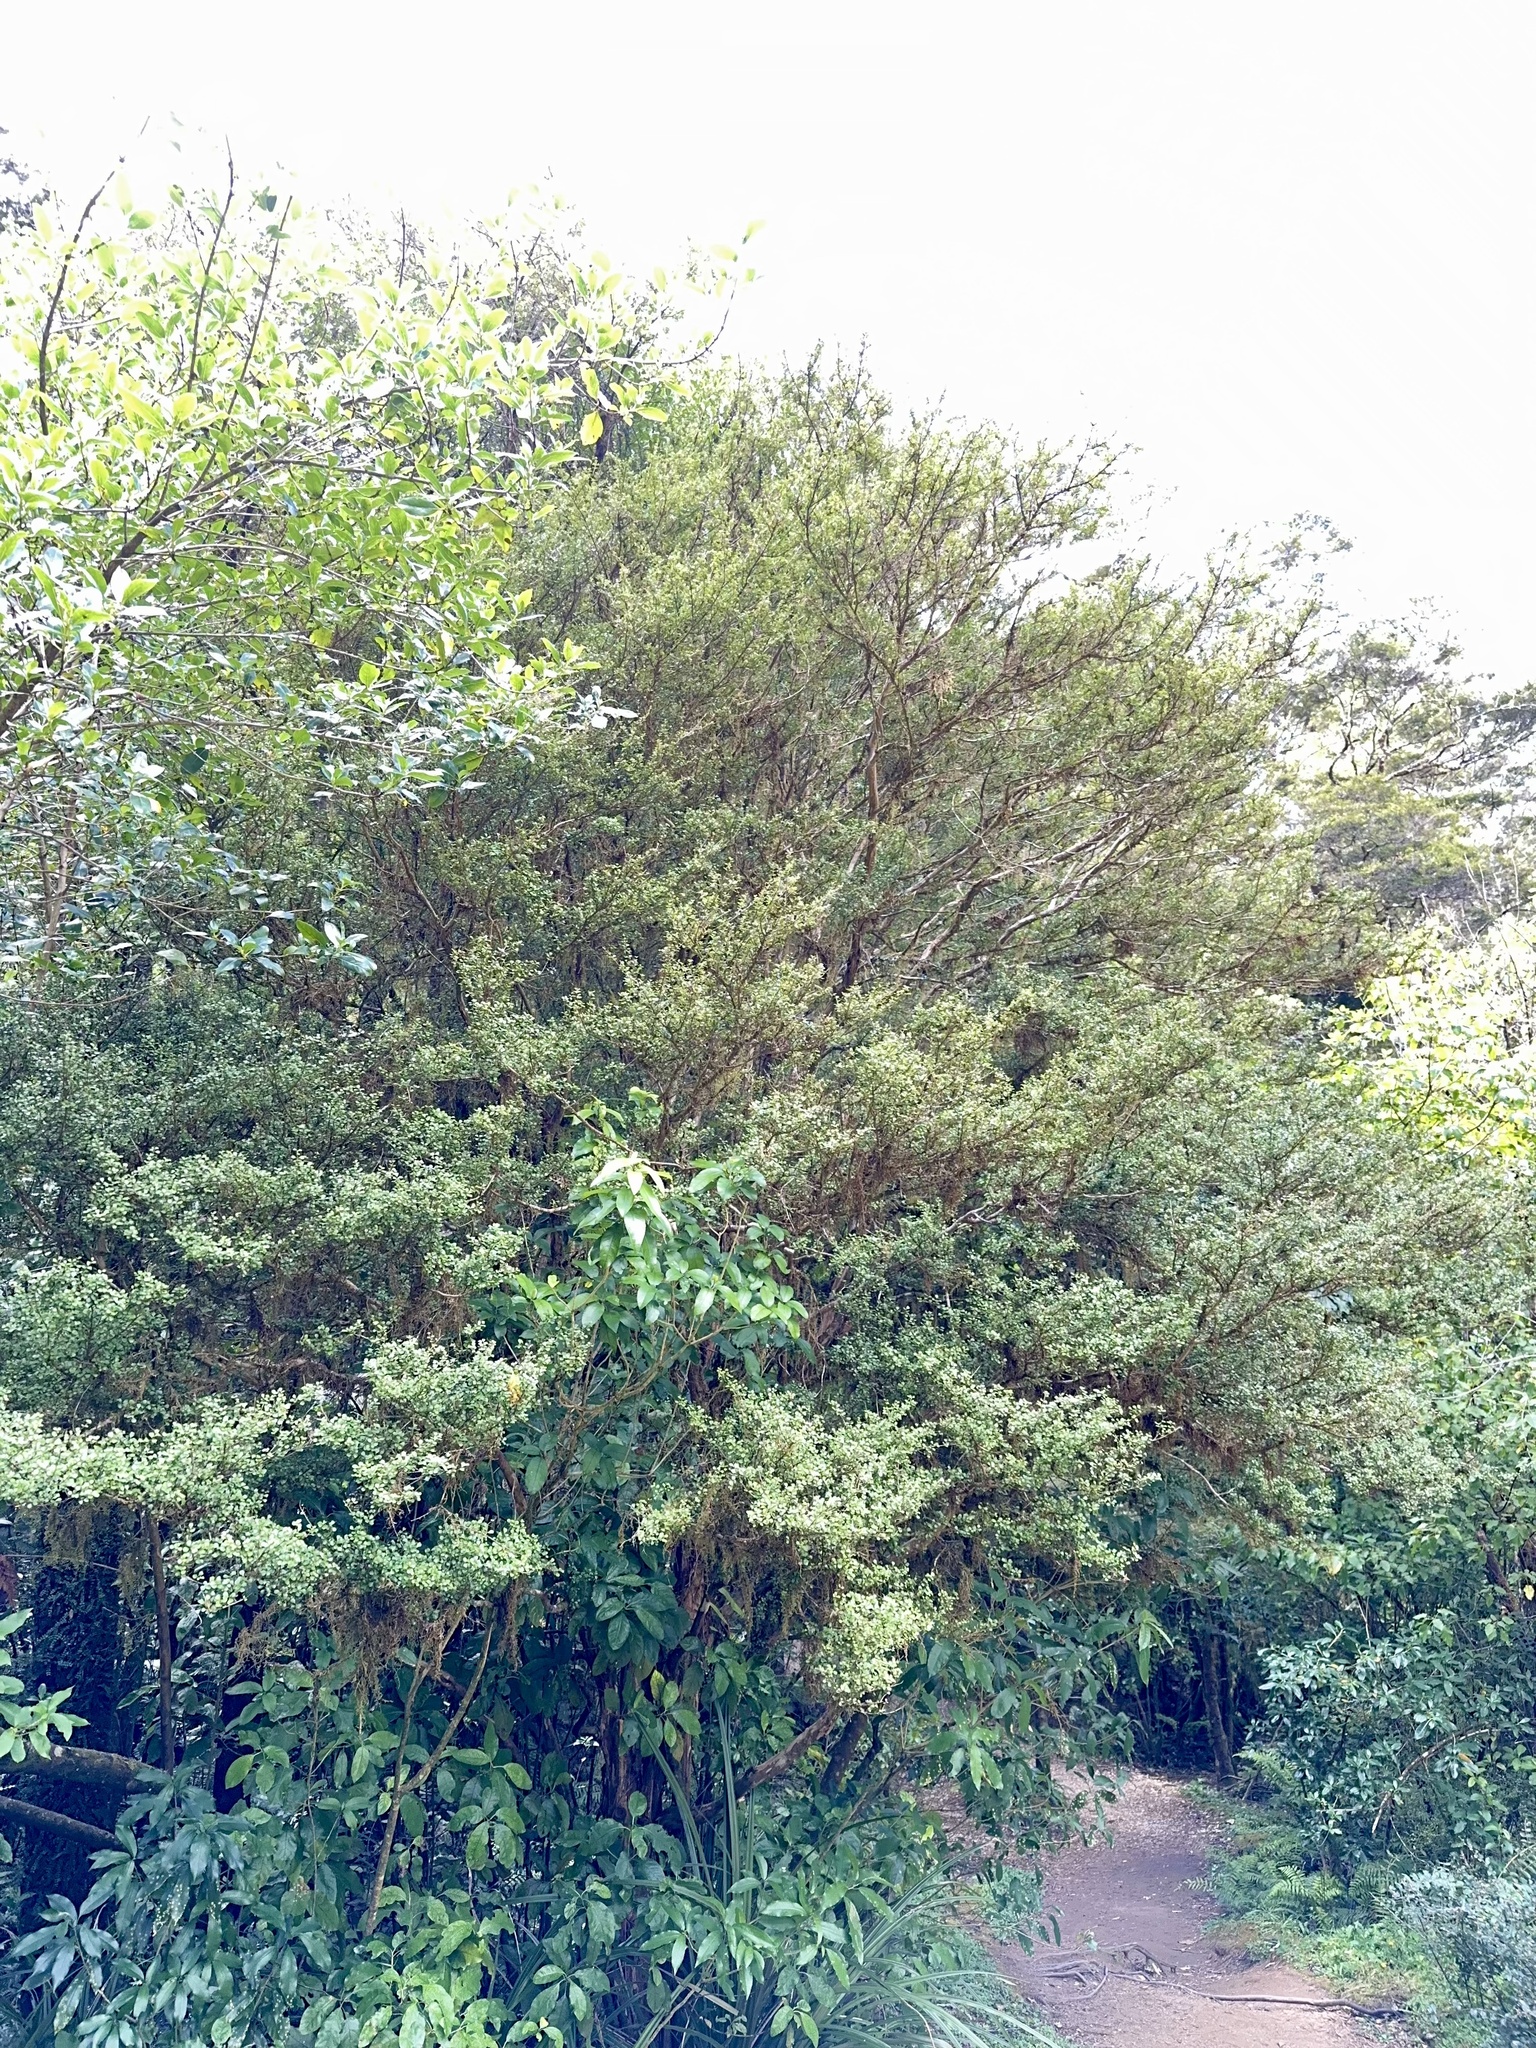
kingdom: Plantae
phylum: Tracheophyta
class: Magnoliopsida
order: Myrtales
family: Myrtaceae
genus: Lophomyrtus
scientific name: Lophomyrtus obcordata
